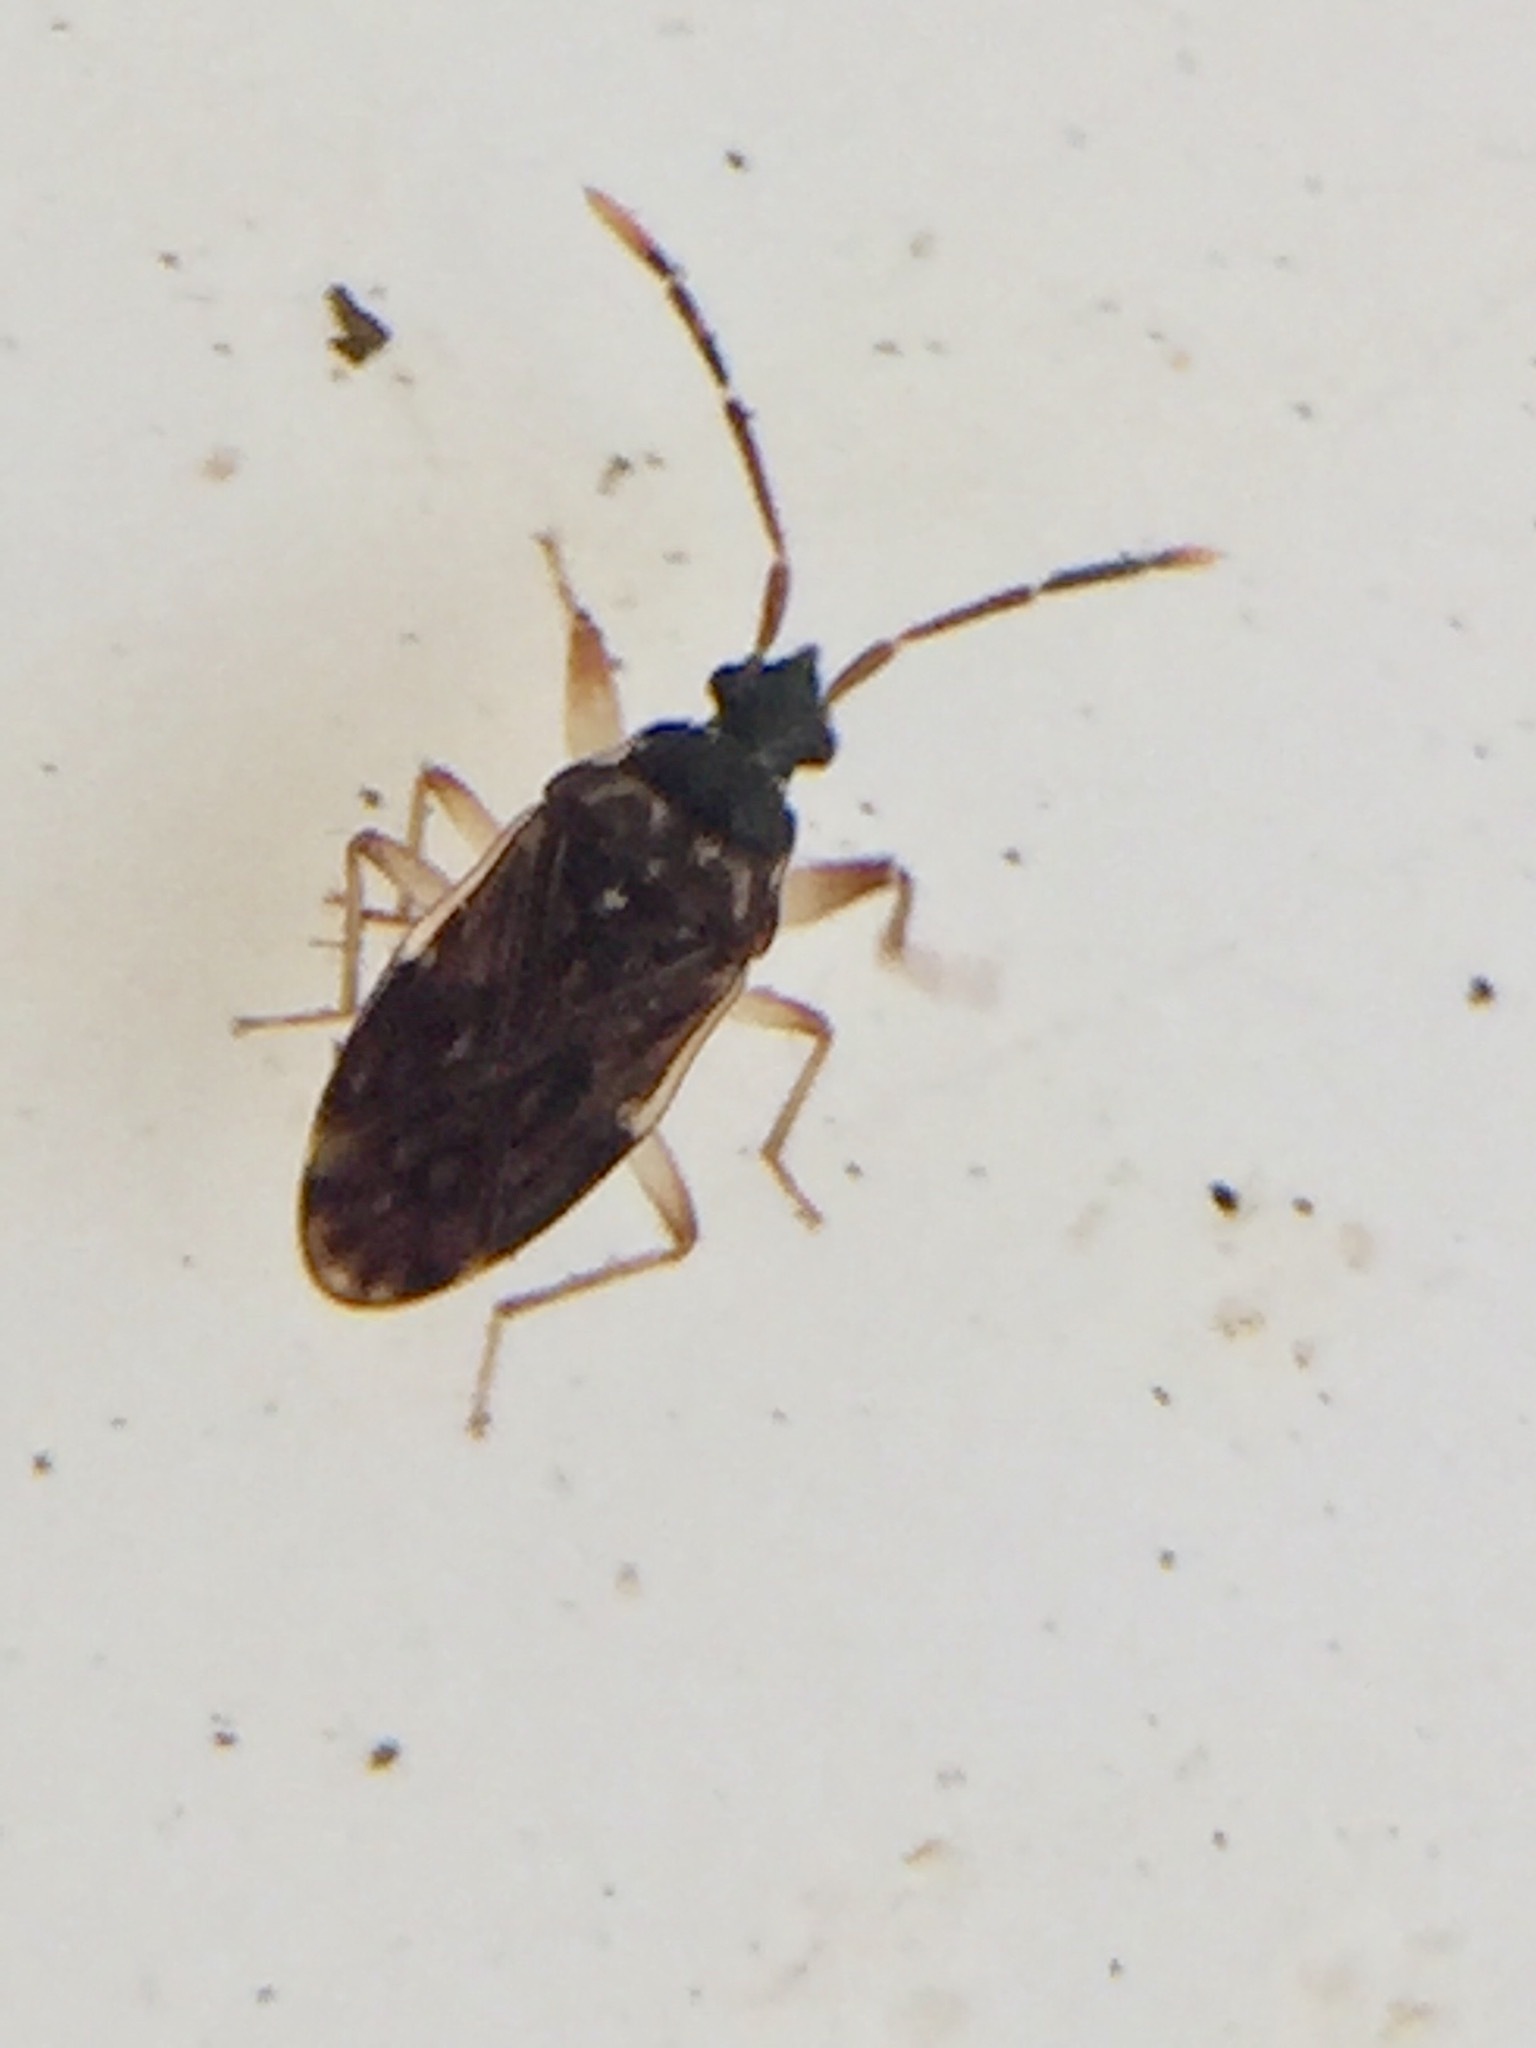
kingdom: Animalia
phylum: Arthropoda
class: Insecta
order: Hemiptera
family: Rhyparochromidae
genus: Grossander
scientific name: Grossander major
